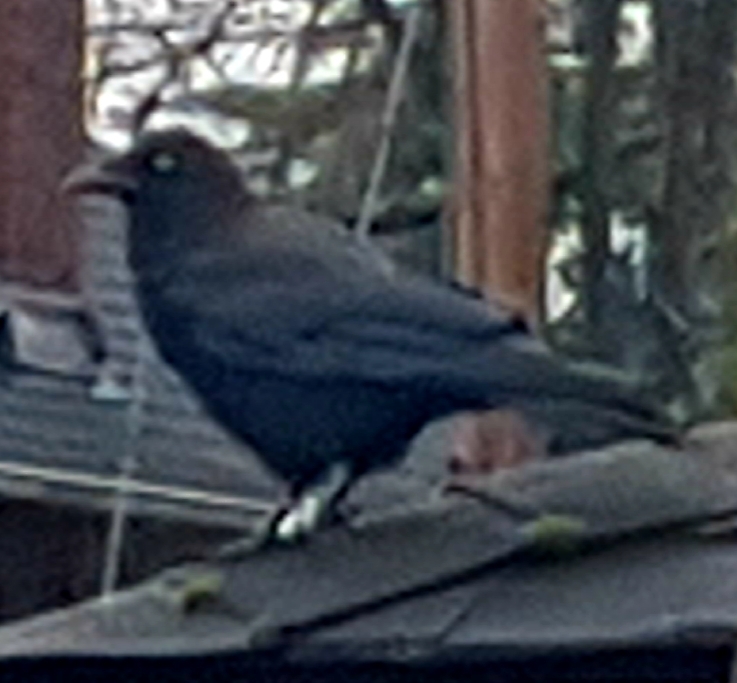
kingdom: Animalia
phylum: Chordata
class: Aves
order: Passeriformes
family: Corvidae
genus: Corvus
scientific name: Corvus brachyrhynchos
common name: American crow
